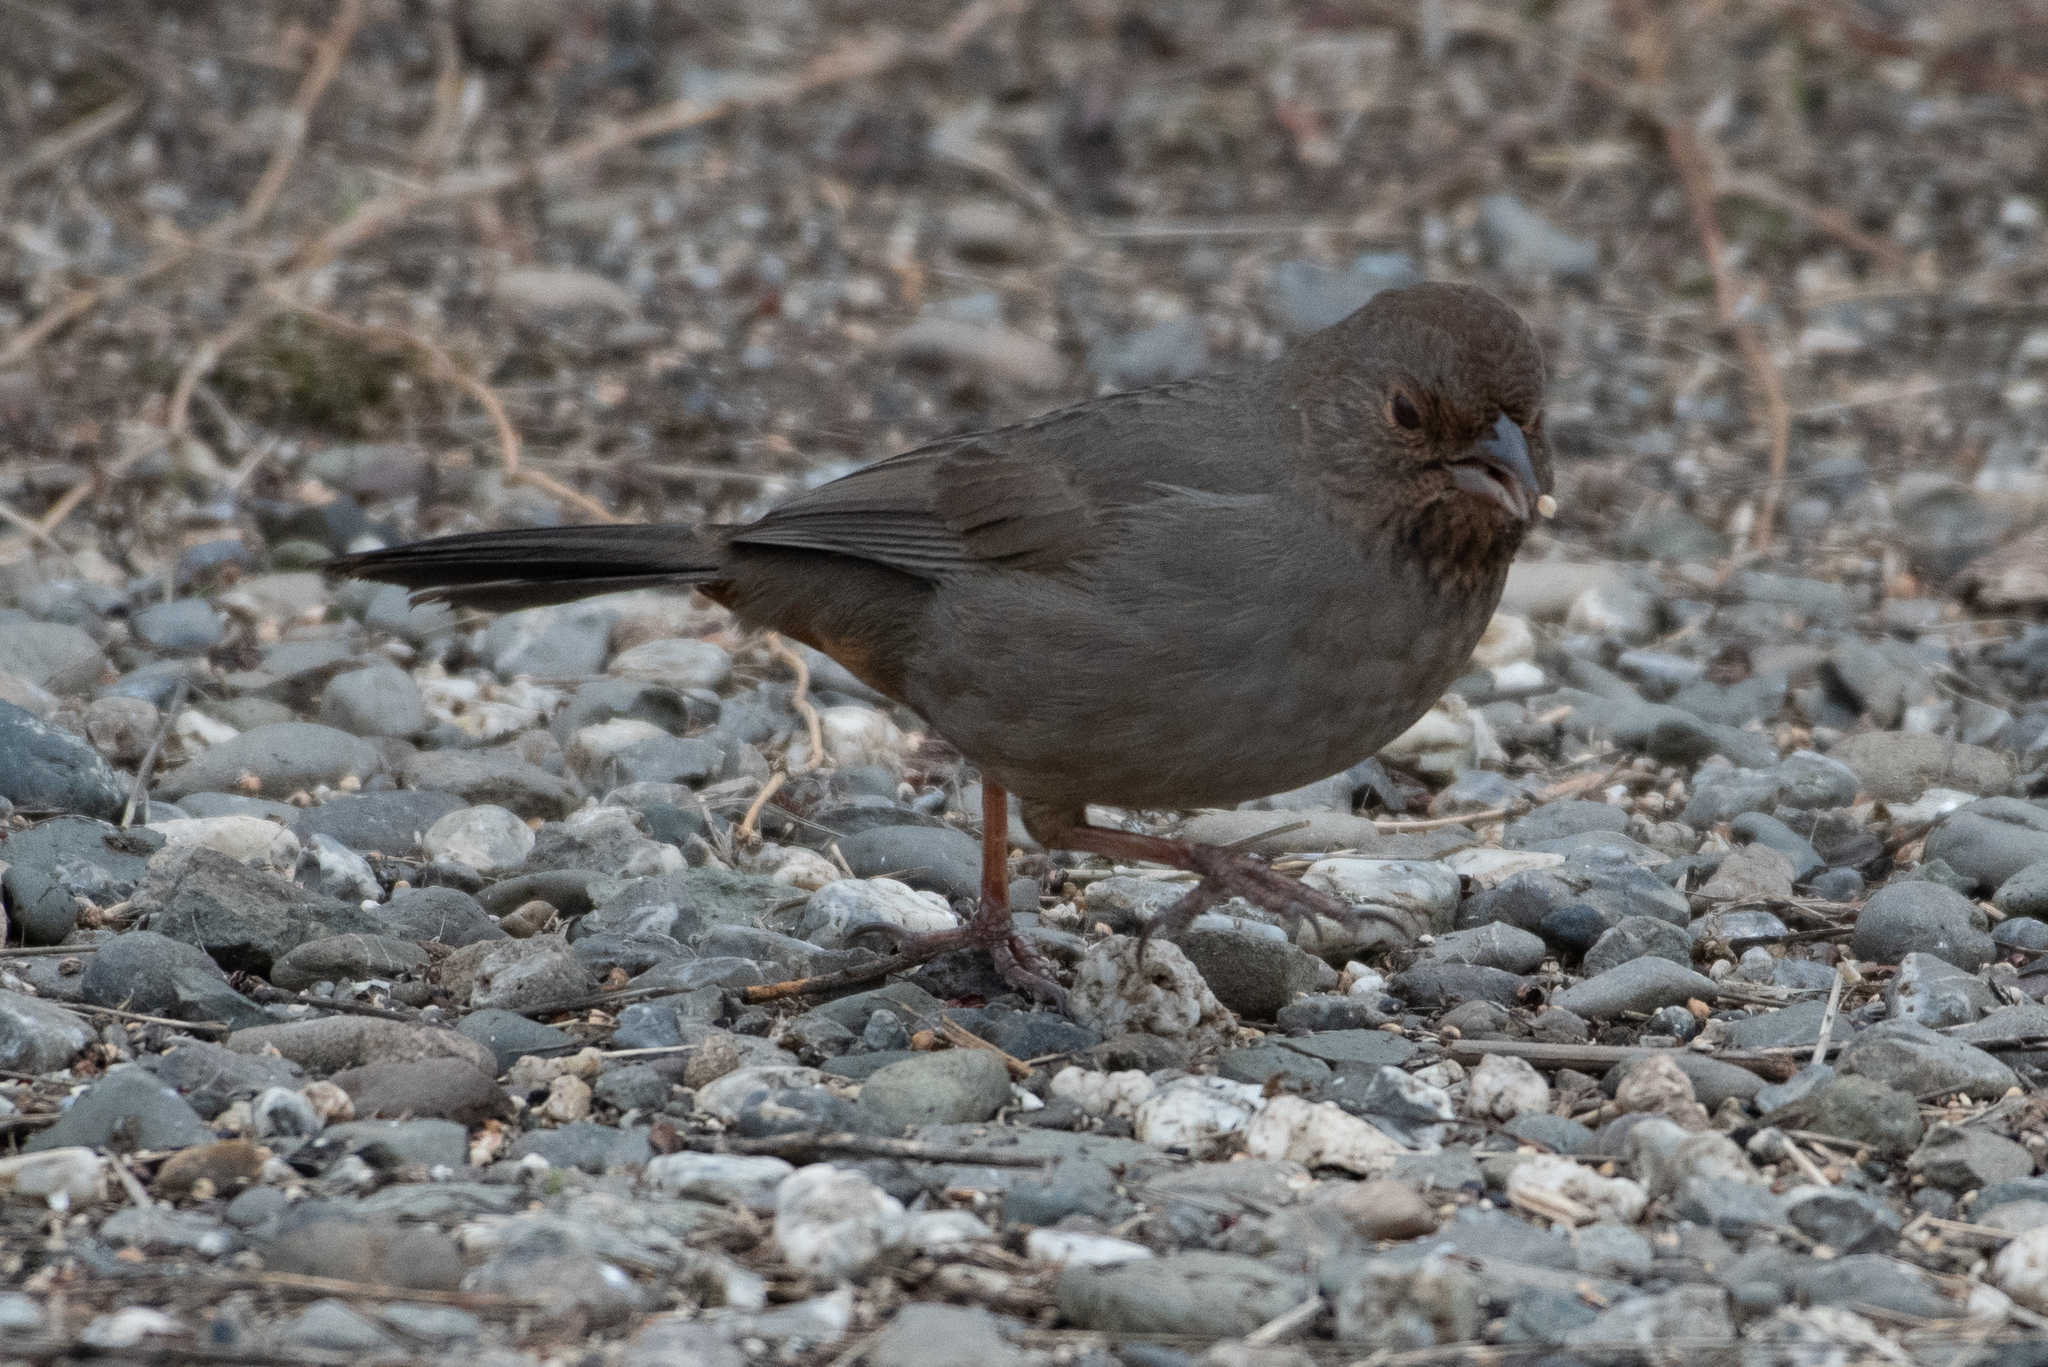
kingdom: Animalia
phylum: Chordata
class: Aves
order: Passeriformes
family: Passerellidae
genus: Melozone
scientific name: Melozone crissalis
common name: California towhee
